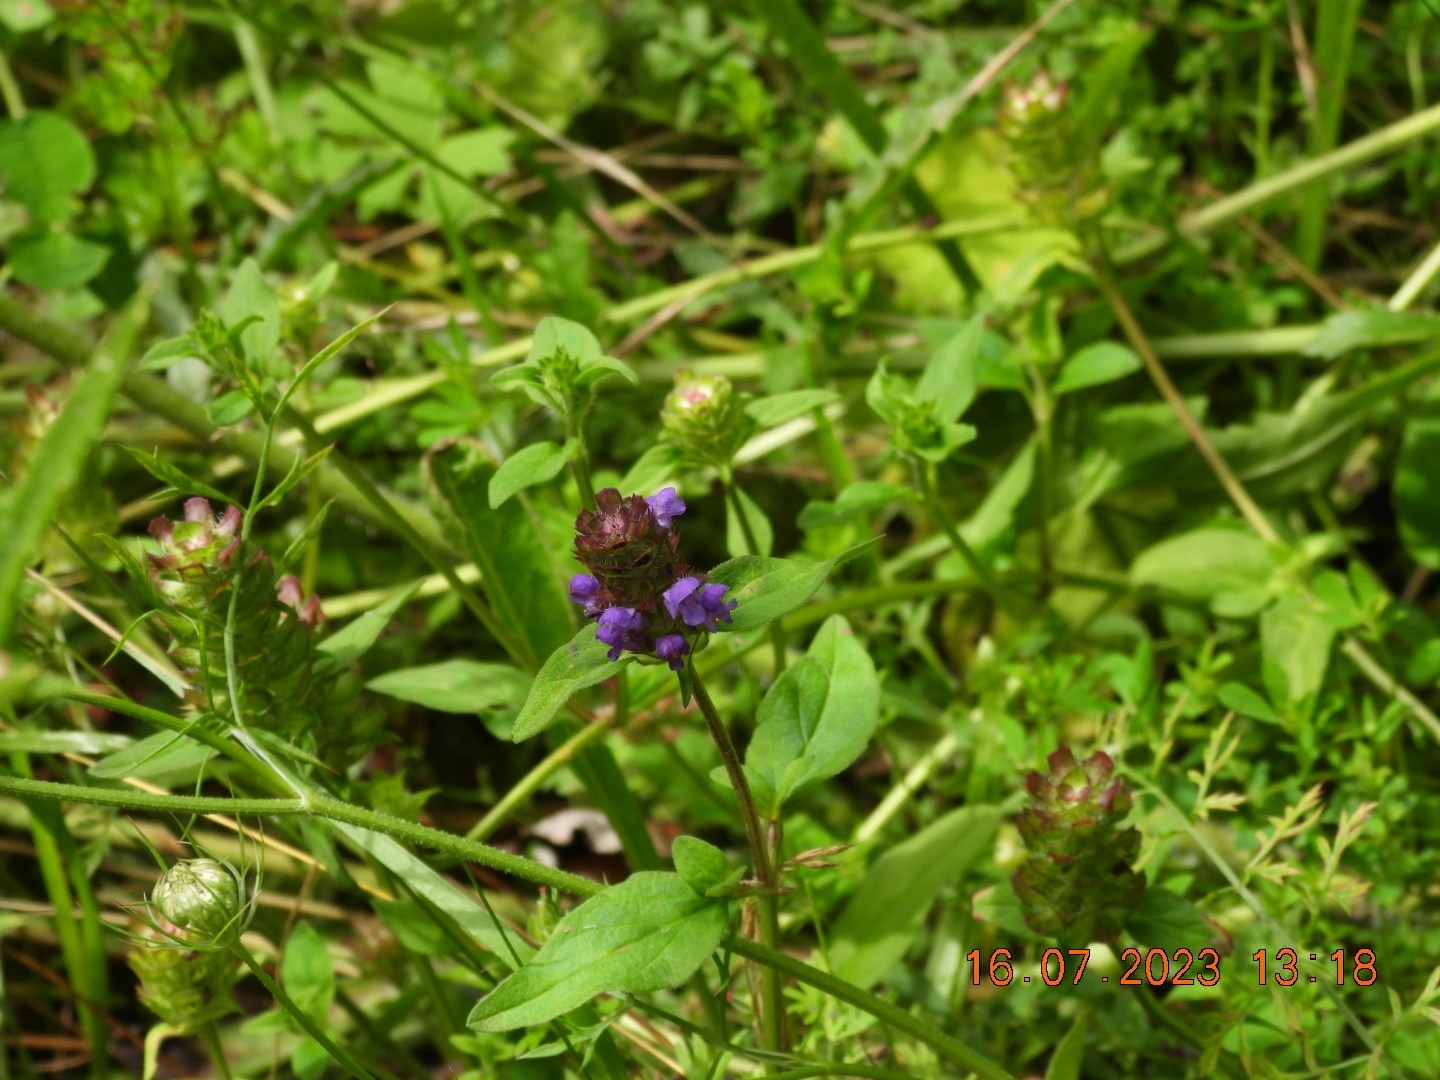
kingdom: Plantae
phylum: Tracheophyta
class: Magnoliopsida
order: Lamiales
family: Lamiaceae
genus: Prunella
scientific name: Prunella vulgaris
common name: Heal-all
